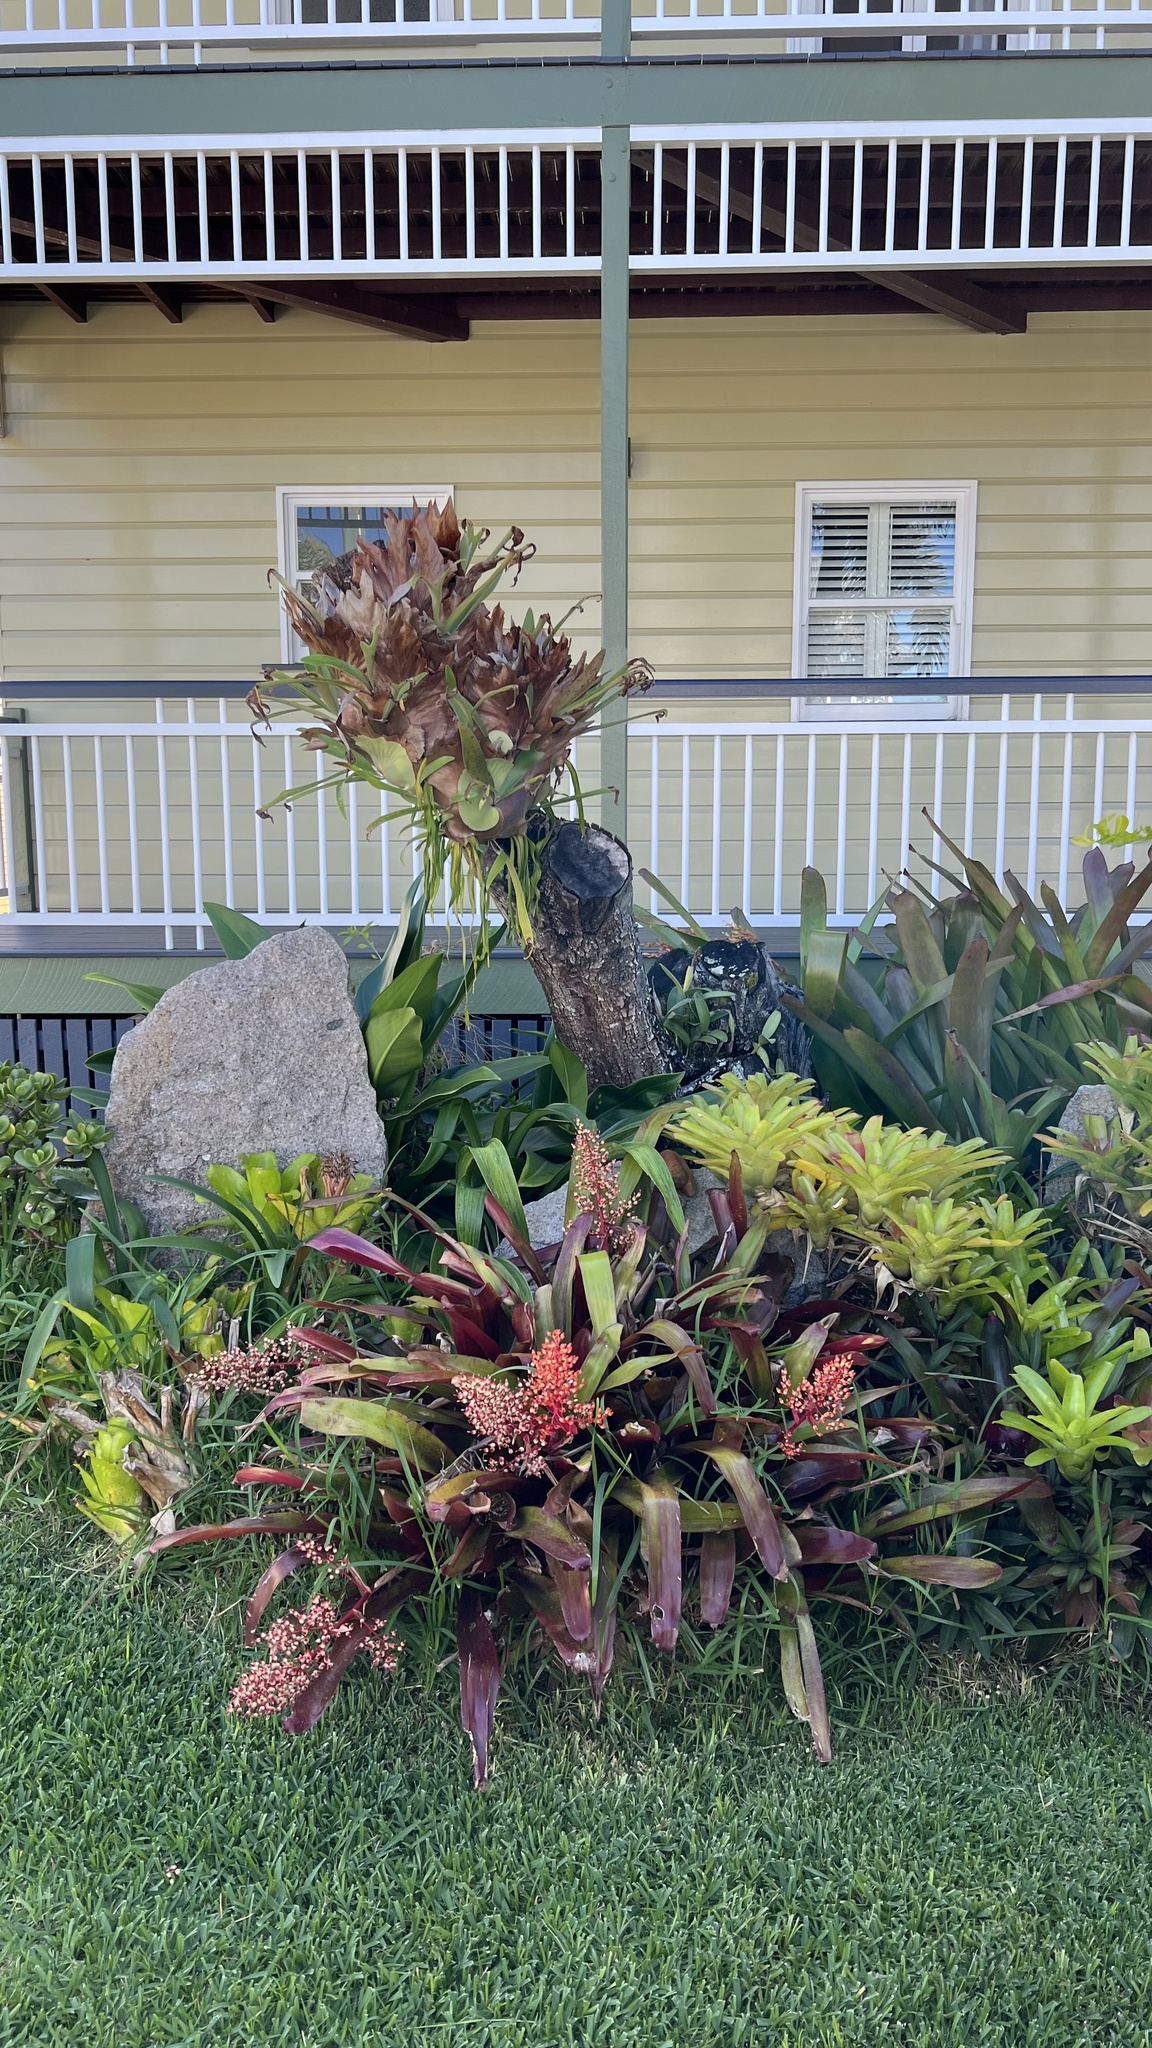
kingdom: Plantae
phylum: Tracheophyta
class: Polypodiopsida
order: Ophioglossales
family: Ophioglossaceae
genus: Ophioderma
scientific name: Ophioderma pendulum
